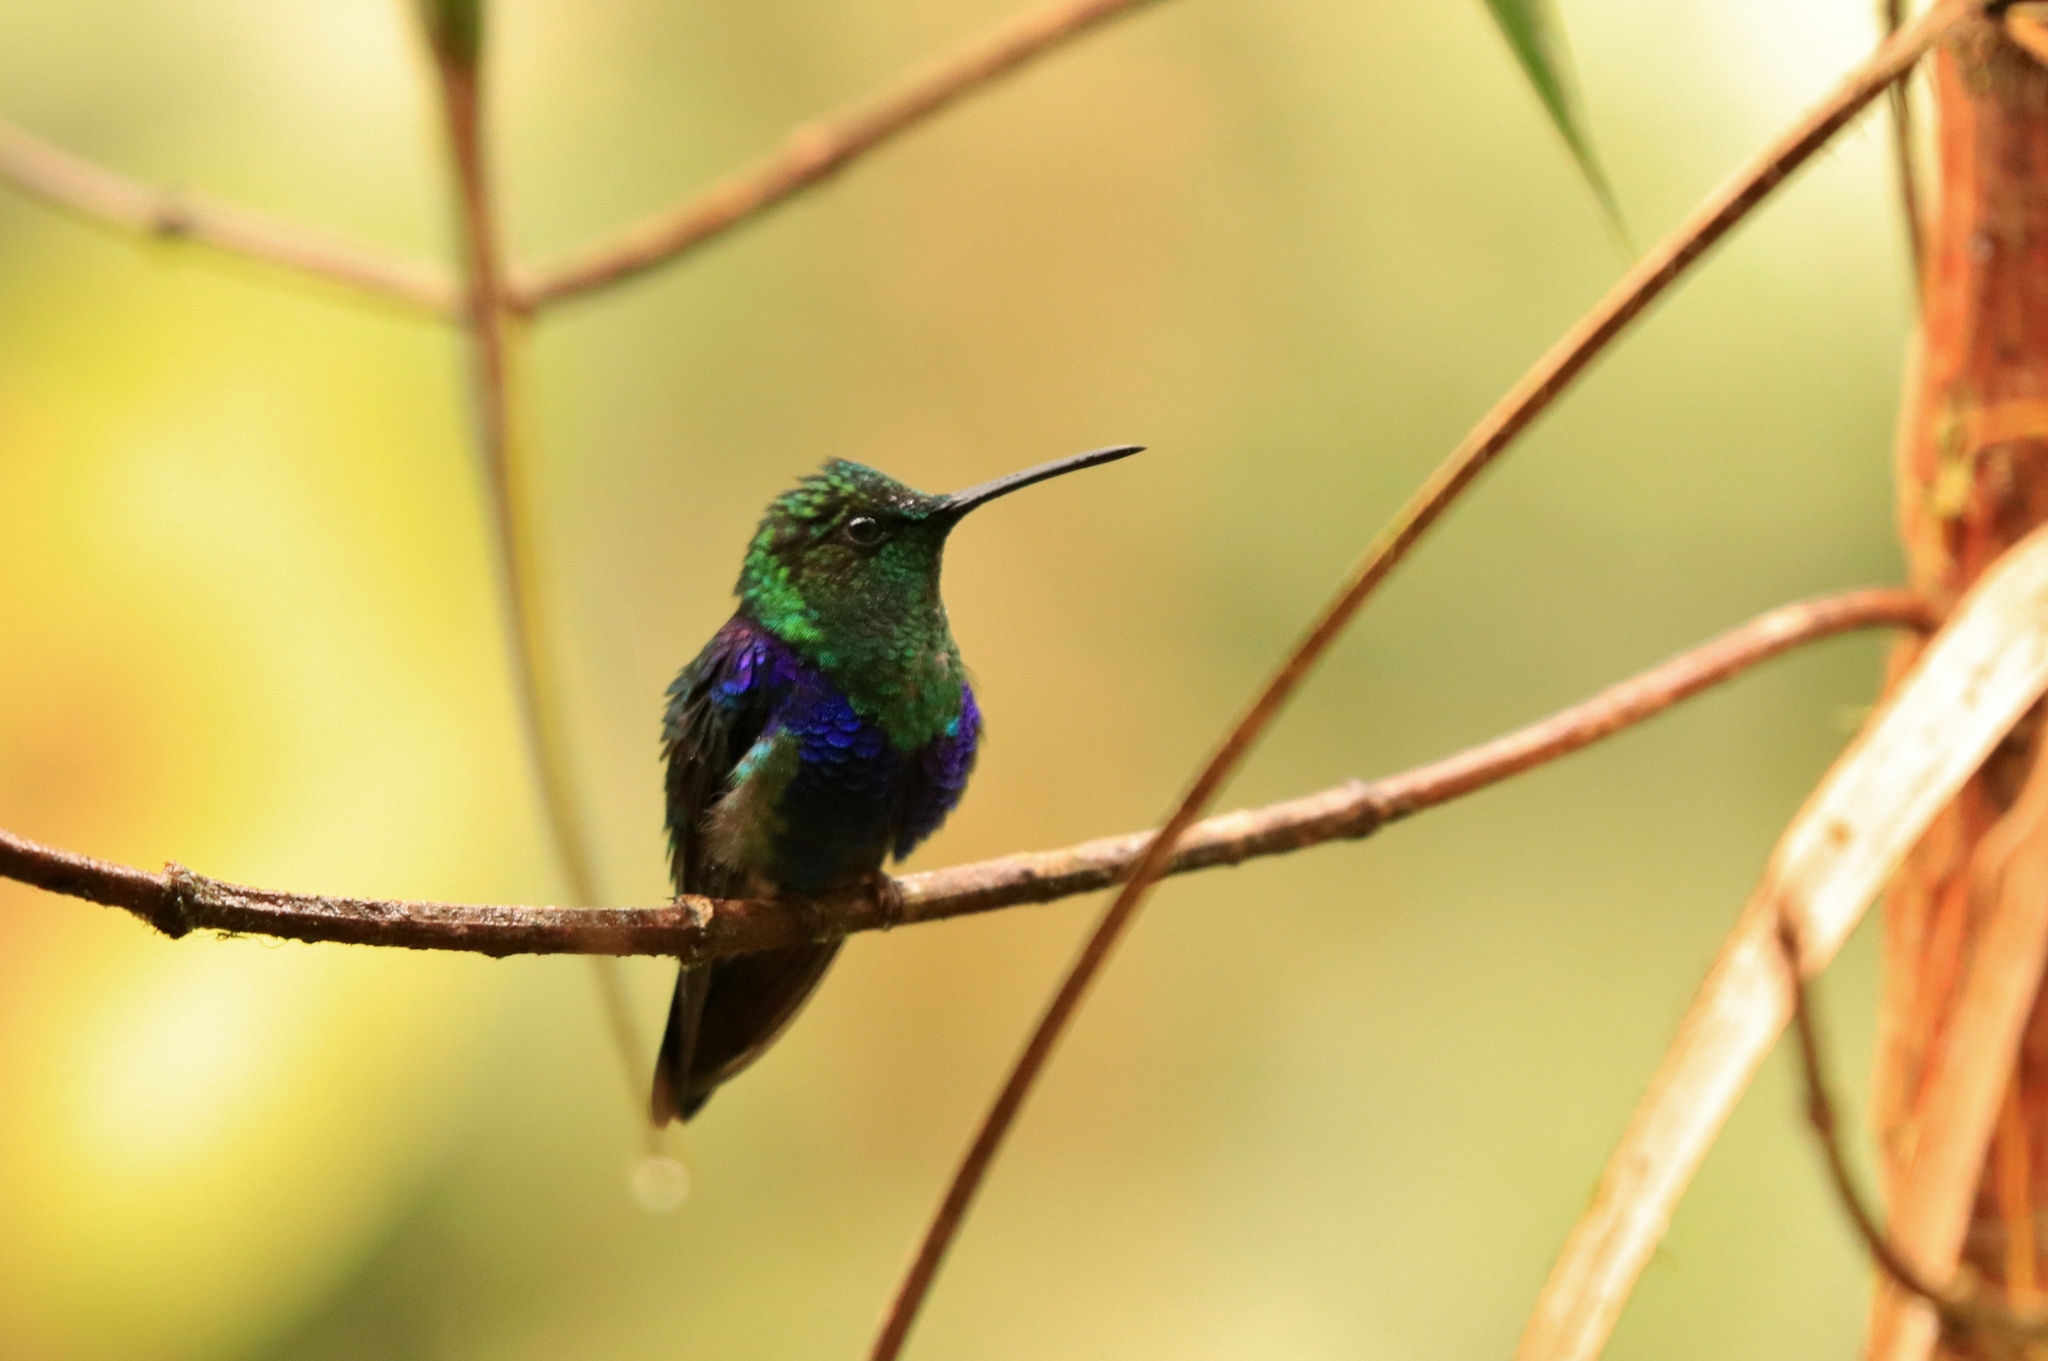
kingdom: Animalia
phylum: Chordata
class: Aves
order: Apodiformes
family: Trochilidae
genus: Thalurania
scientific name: Thalurania colombica
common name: Crowned woodnymph
